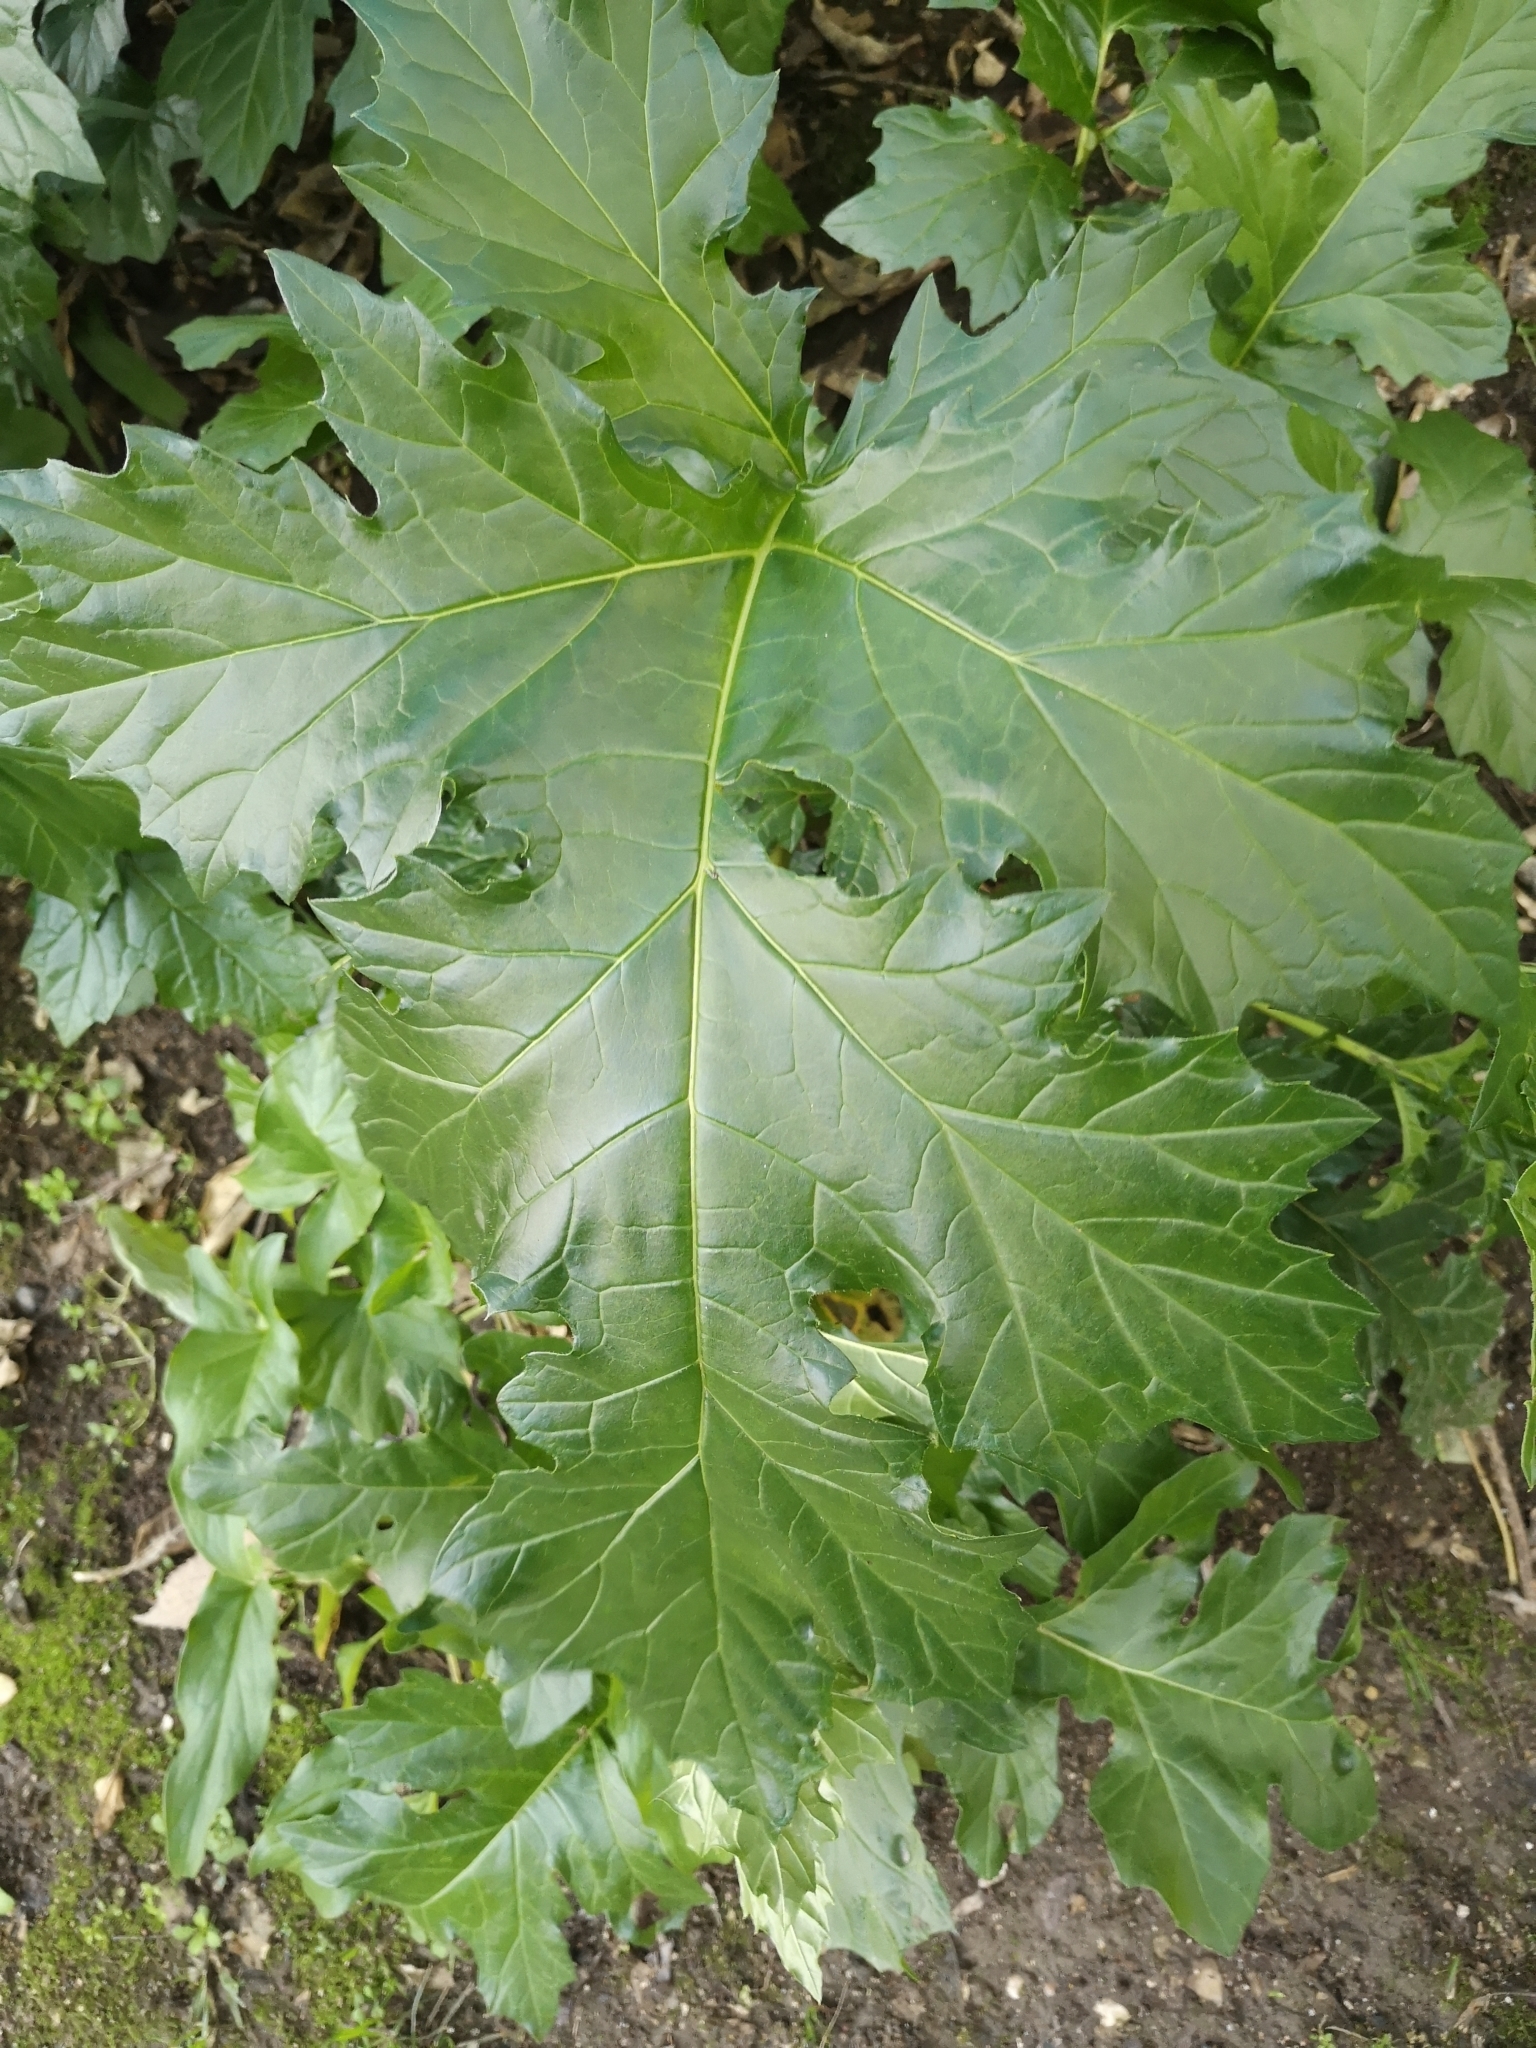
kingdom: Plantae
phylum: Tracheophyta
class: Magnoliopsida
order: Lamiales
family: Acanthaceae
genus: Acanthus
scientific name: Acanthus mollis
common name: Bear's-breech
